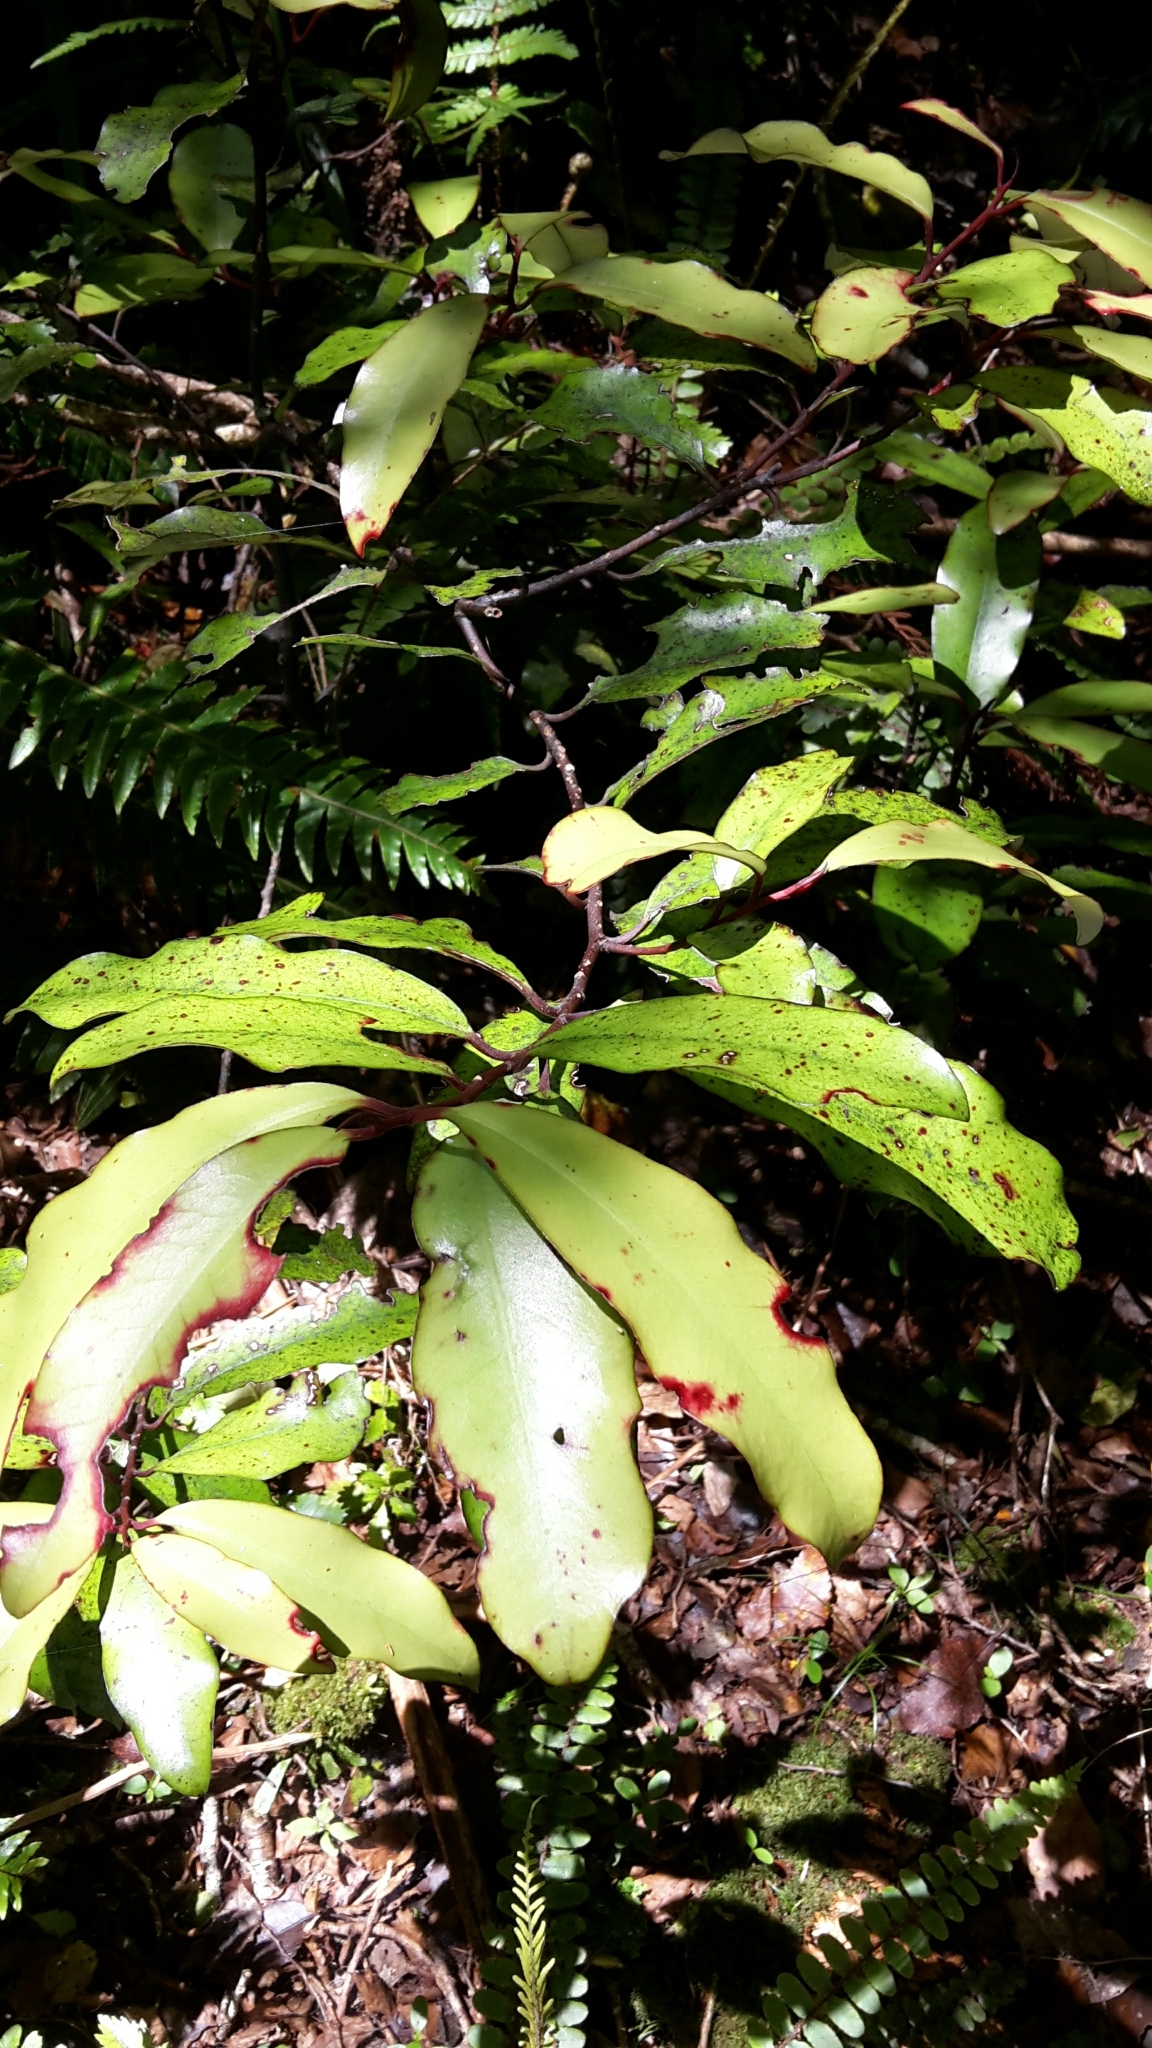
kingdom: Plantae
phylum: Tracheophyta
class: Magnoliopsida
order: Canellales
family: Winteraceae
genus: Pseudowintera
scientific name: Pseudowintera colorata
